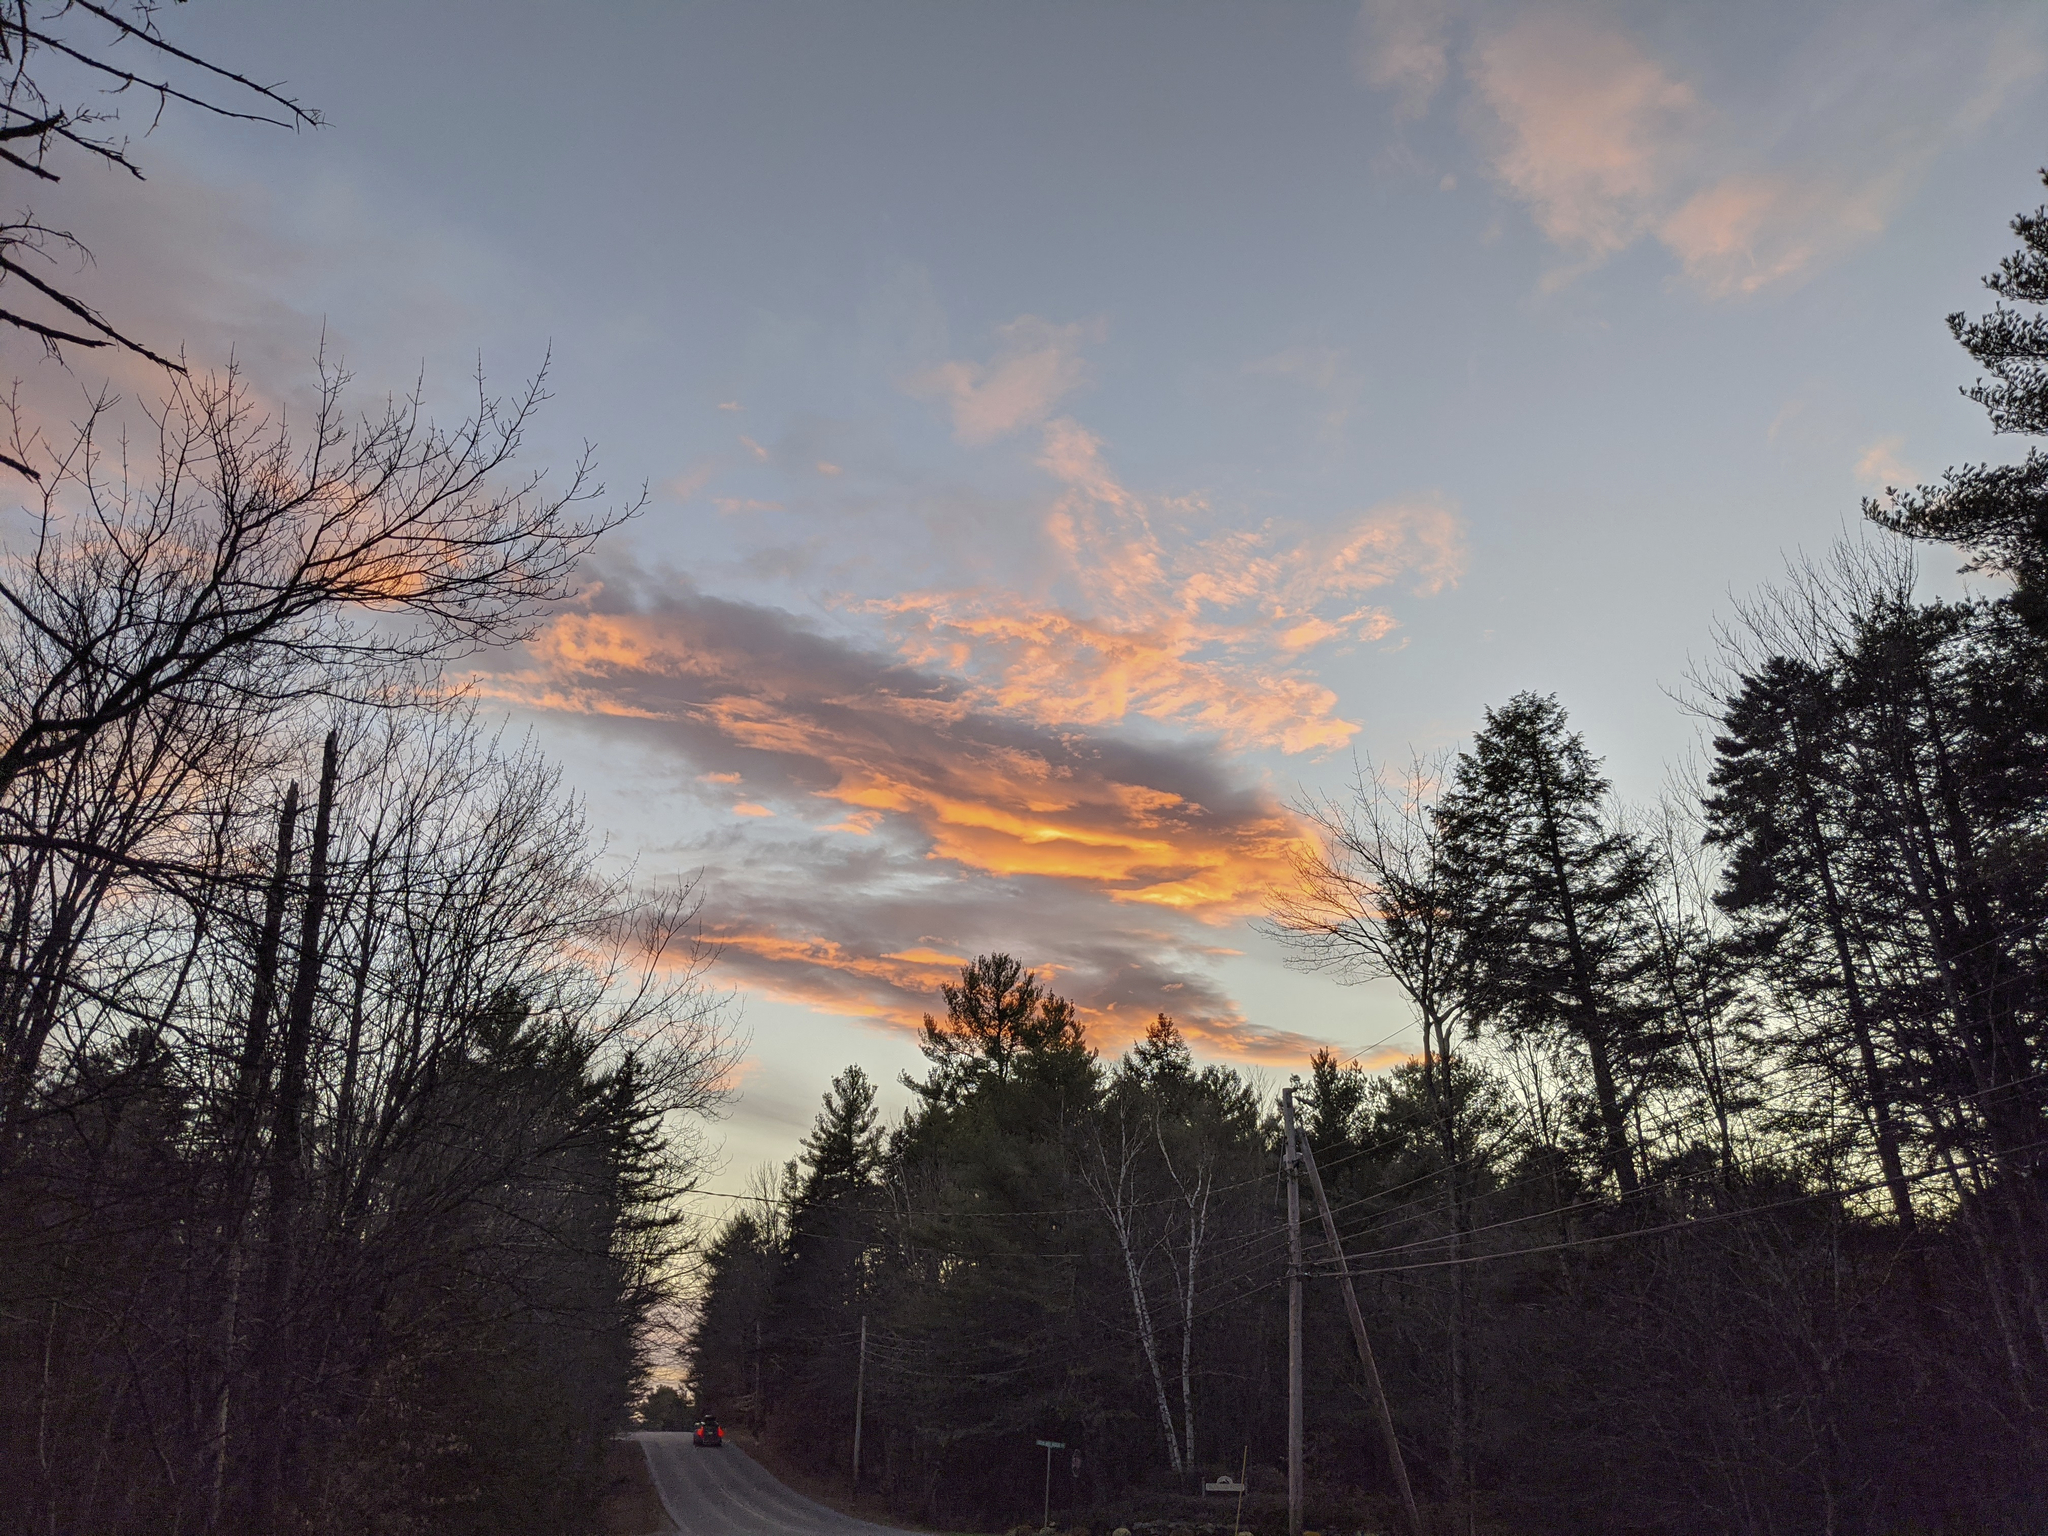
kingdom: Plantae
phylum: Tracheophyta
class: Pinopsida
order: Pinales
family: Pinaceae
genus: Pinus
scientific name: Pinus strobus
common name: Weymouth pine
